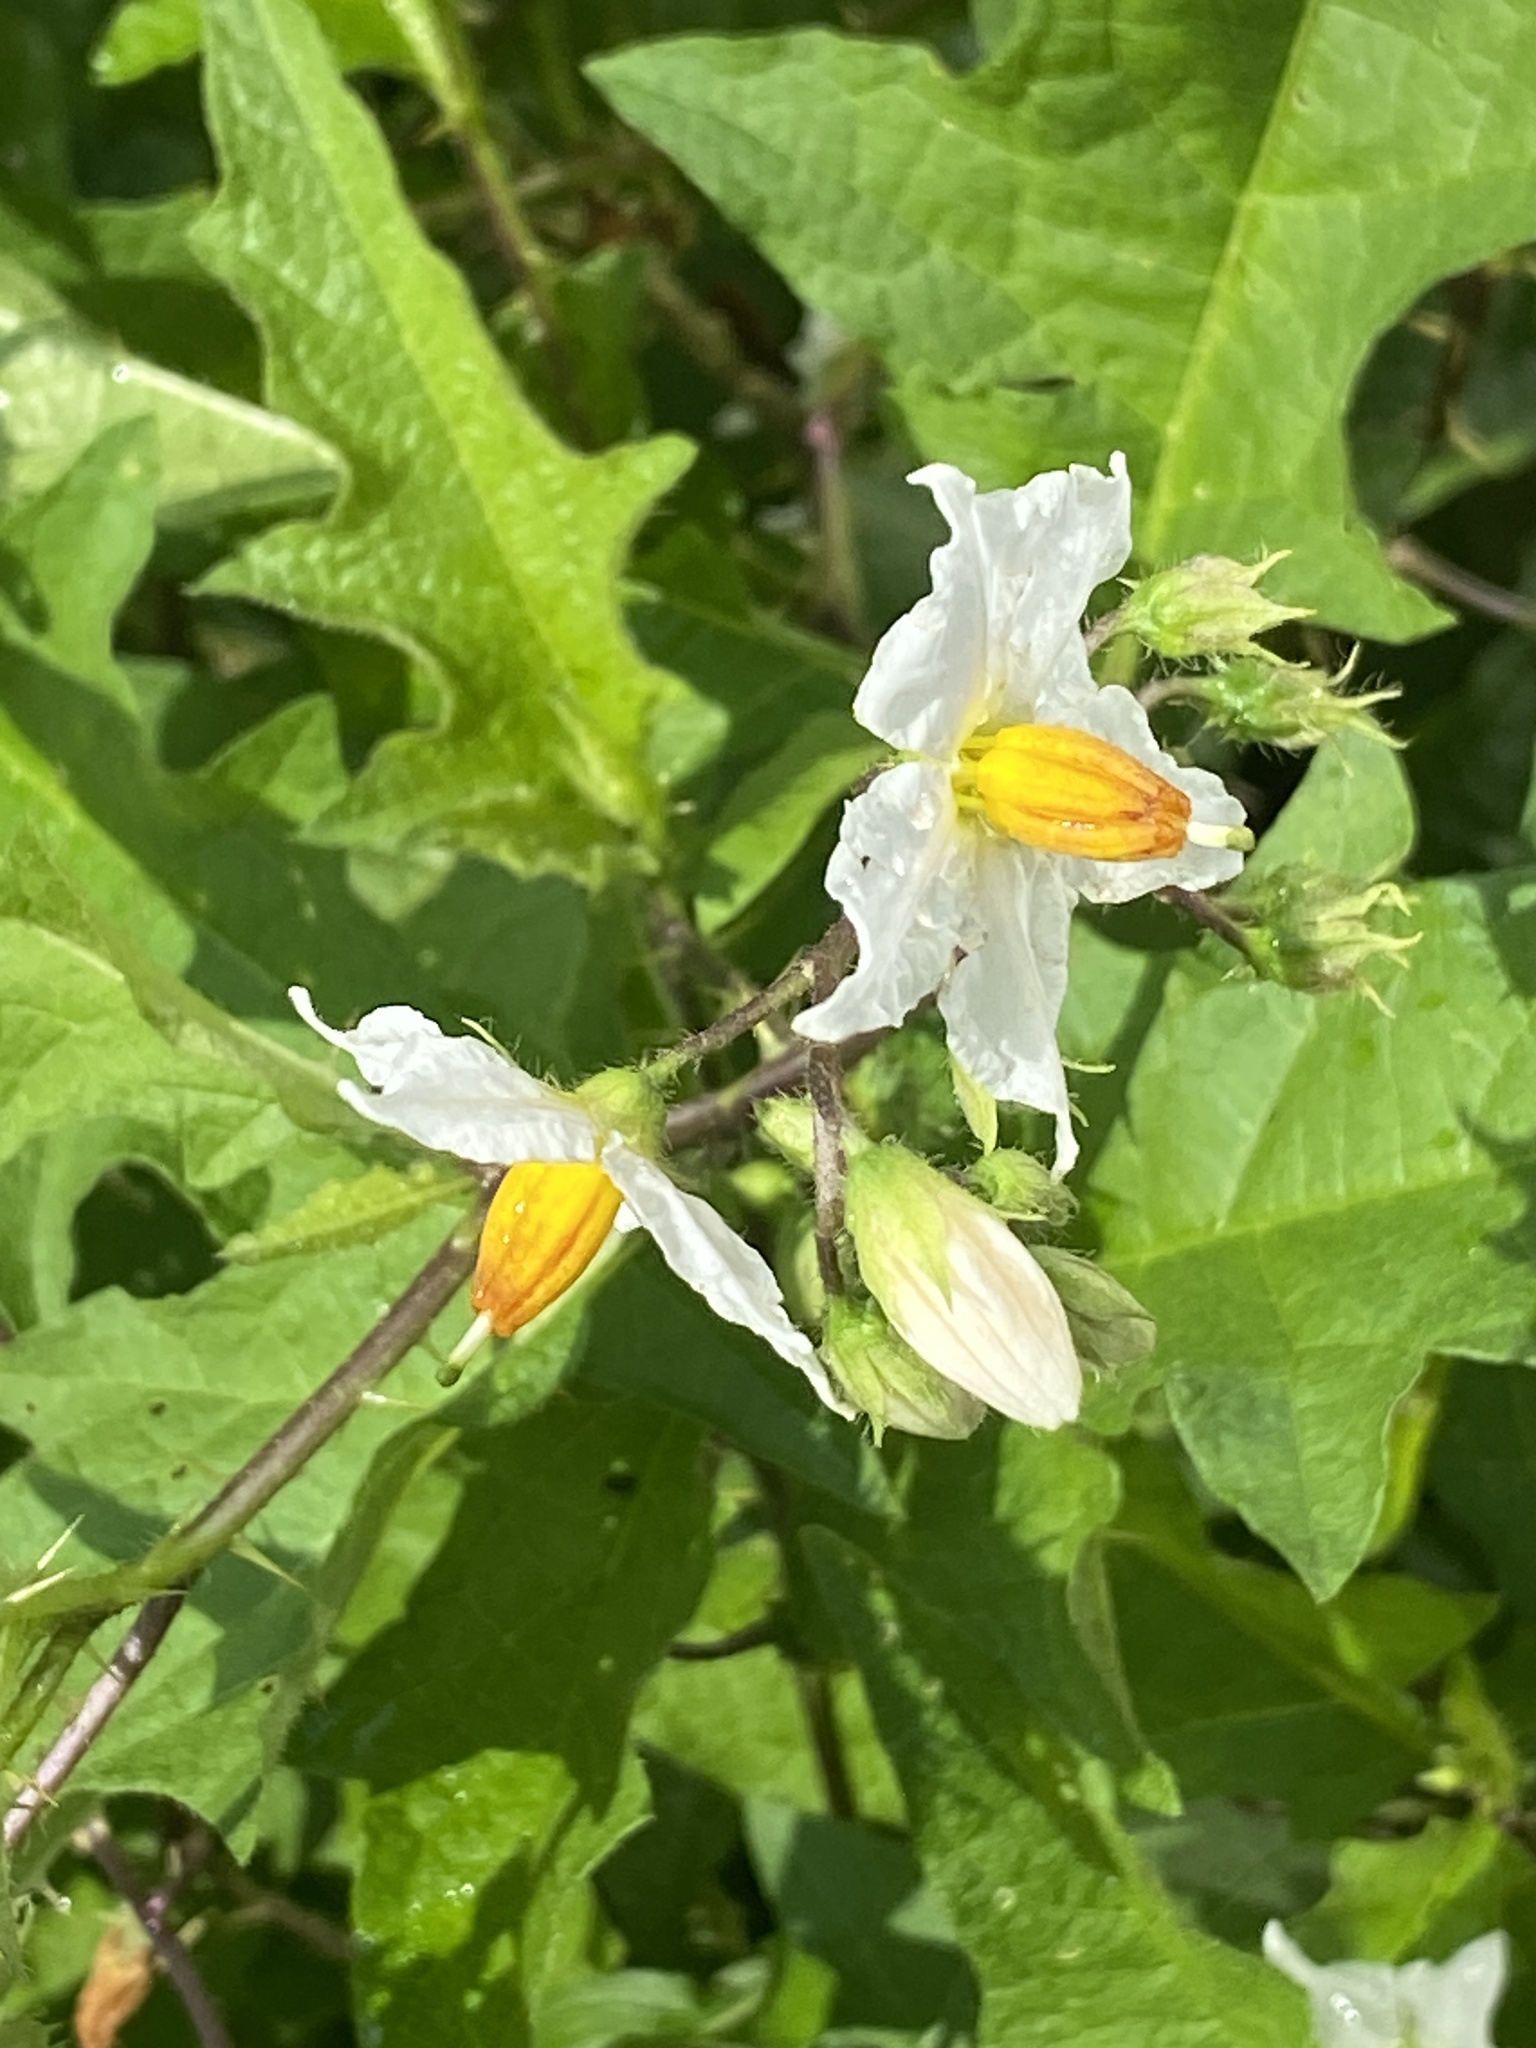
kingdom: Plantae
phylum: Tracheophyta
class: Magnoliopsida
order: Solanales
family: Solanaceae
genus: Solanum
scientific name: Solanum carolinense
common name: Horse-nettle
